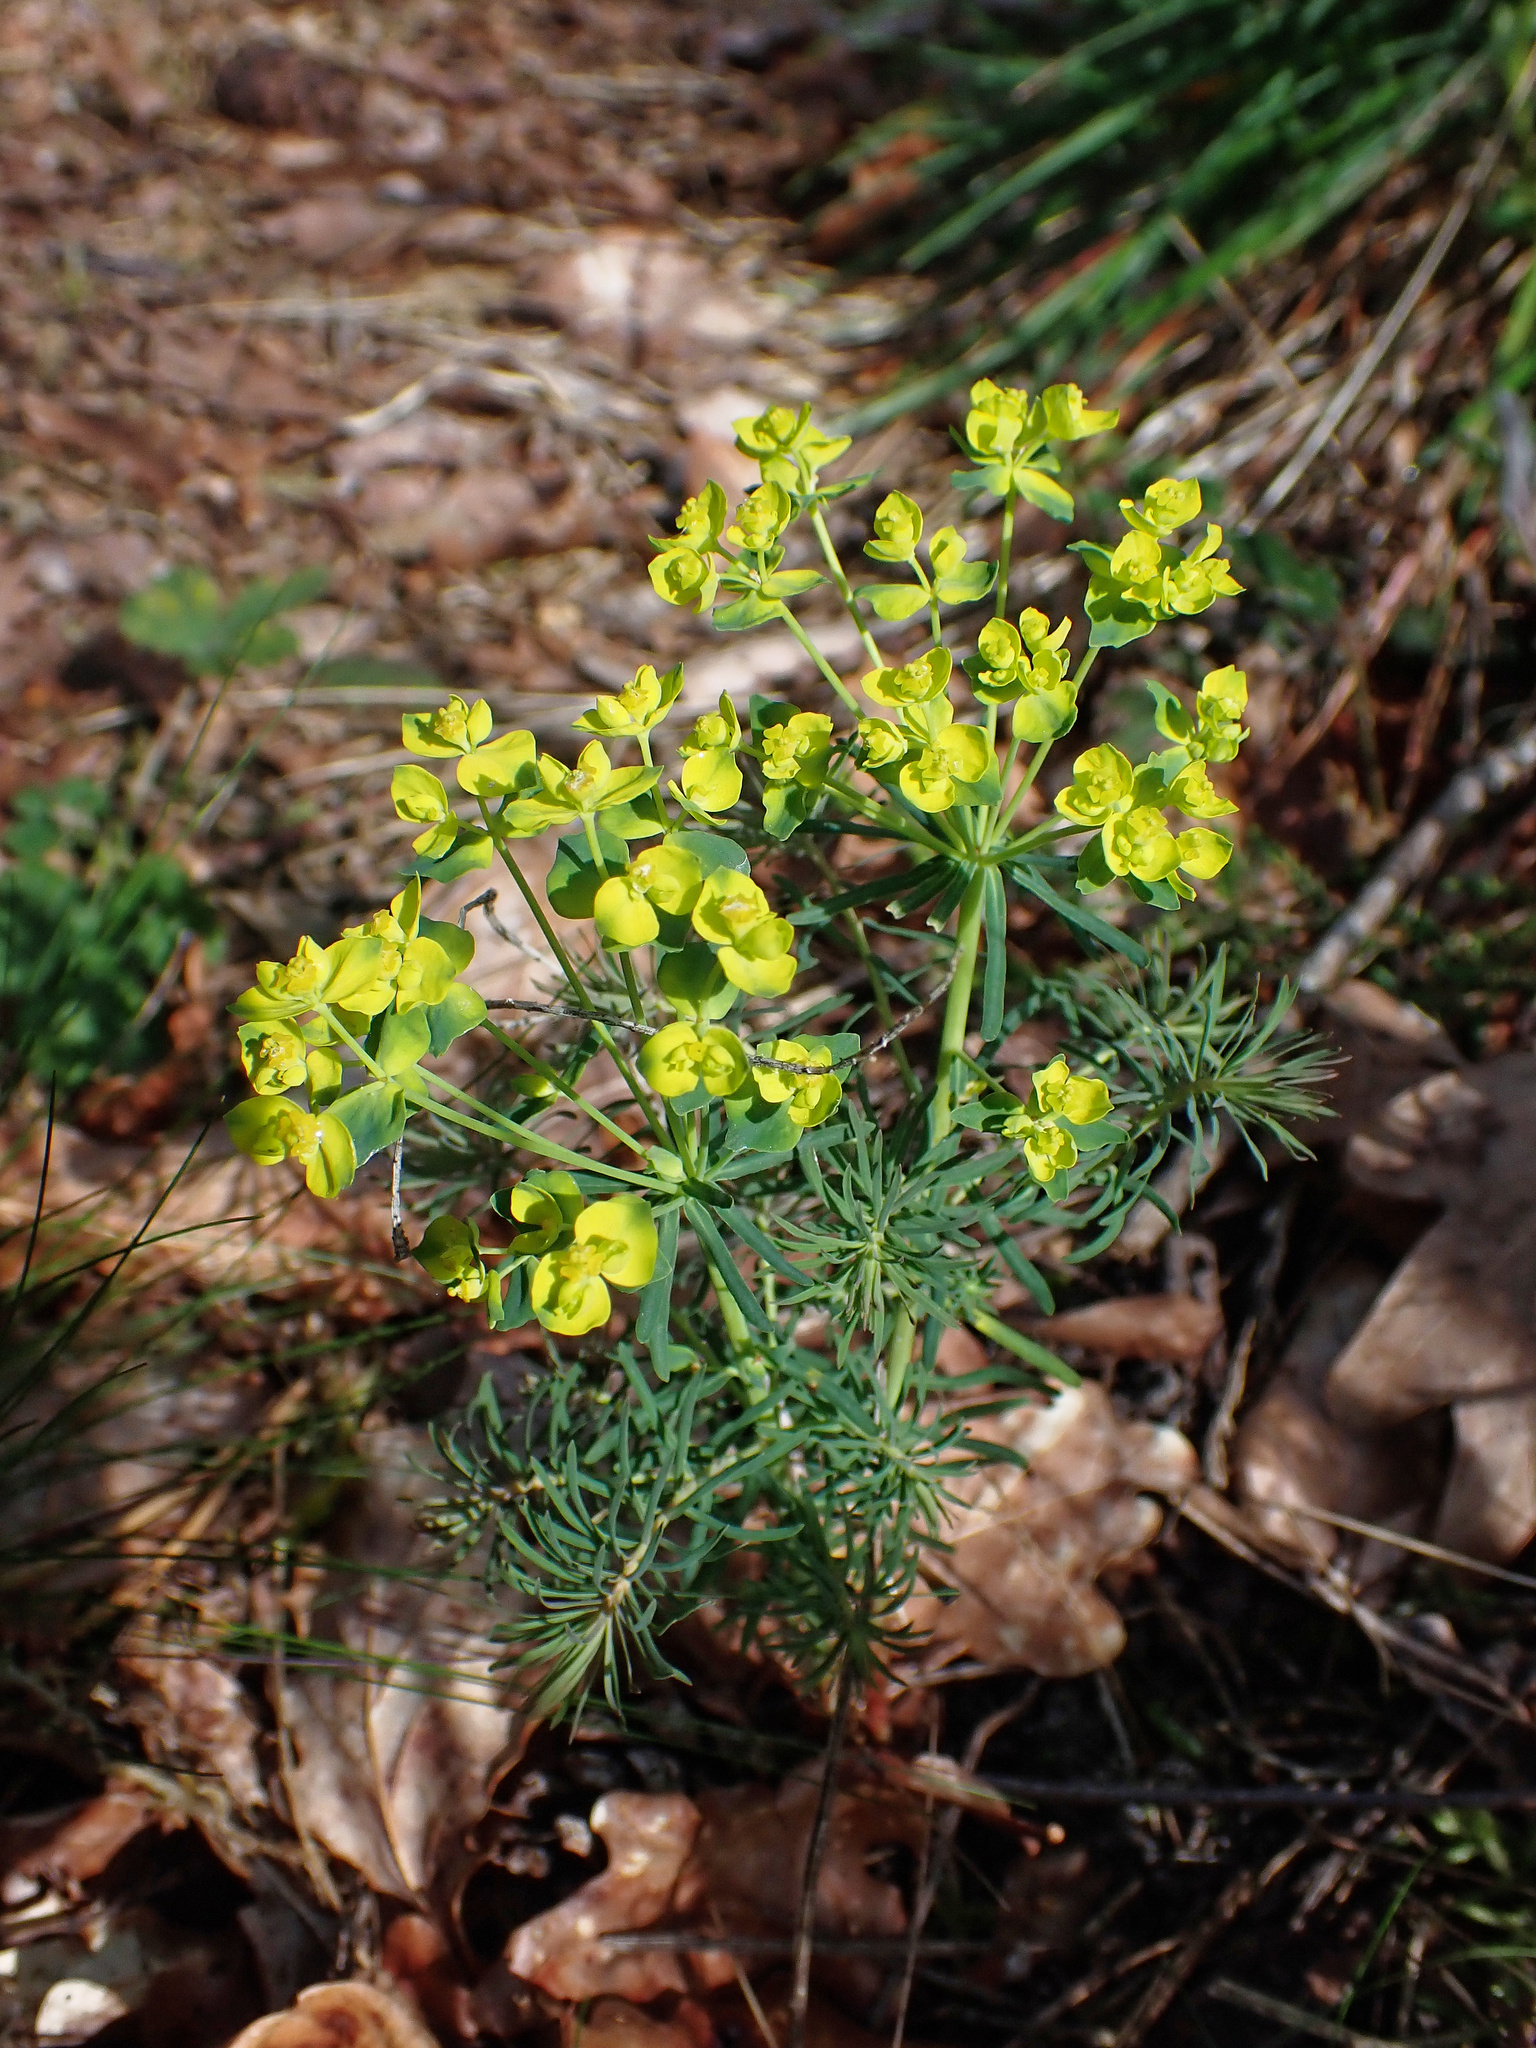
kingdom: Plantae
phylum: Tracheophyta
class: Magnoliopsida
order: Malpighiales
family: Euphorbiaceae
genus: Euphorbia
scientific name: Euphorbia cyparissias
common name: Cypress spurge
